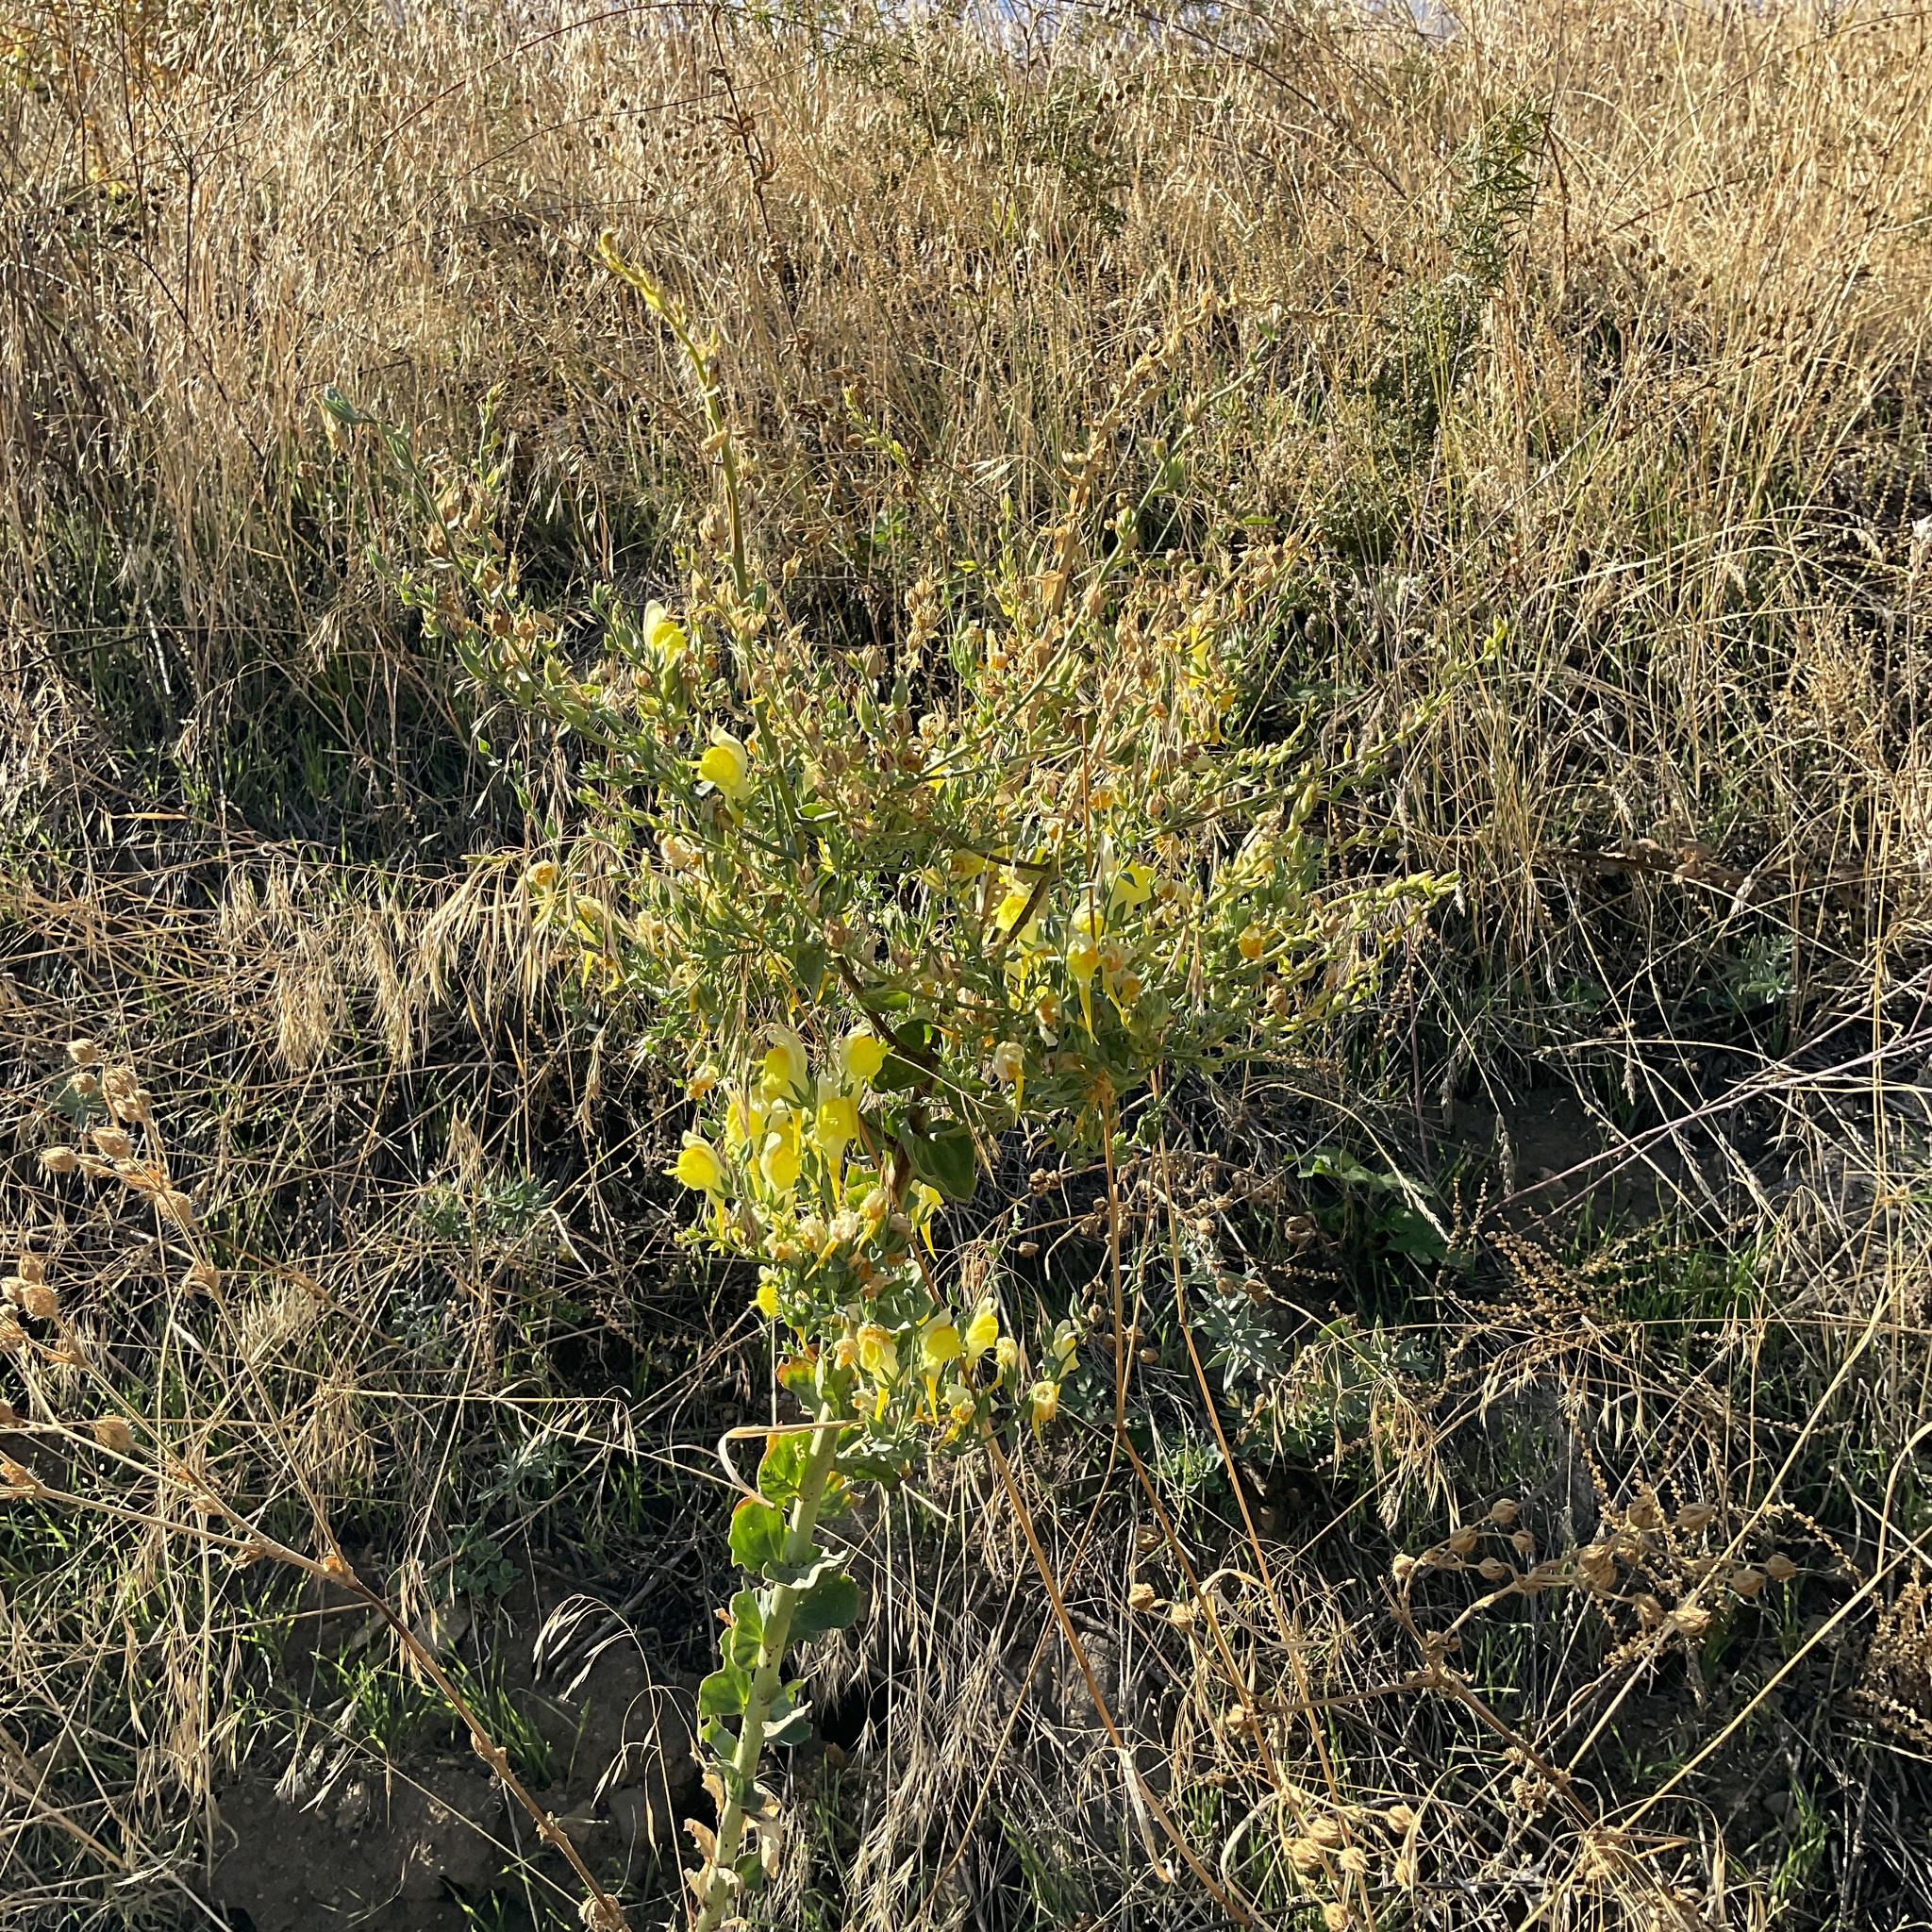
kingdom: Plantae
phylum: Tracheophyta
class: Magnoliopsida
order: Lamiales
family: Plantaginaceae
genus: Linaria
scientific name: Linaria dalmatica
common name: Dalmatian toadflax
